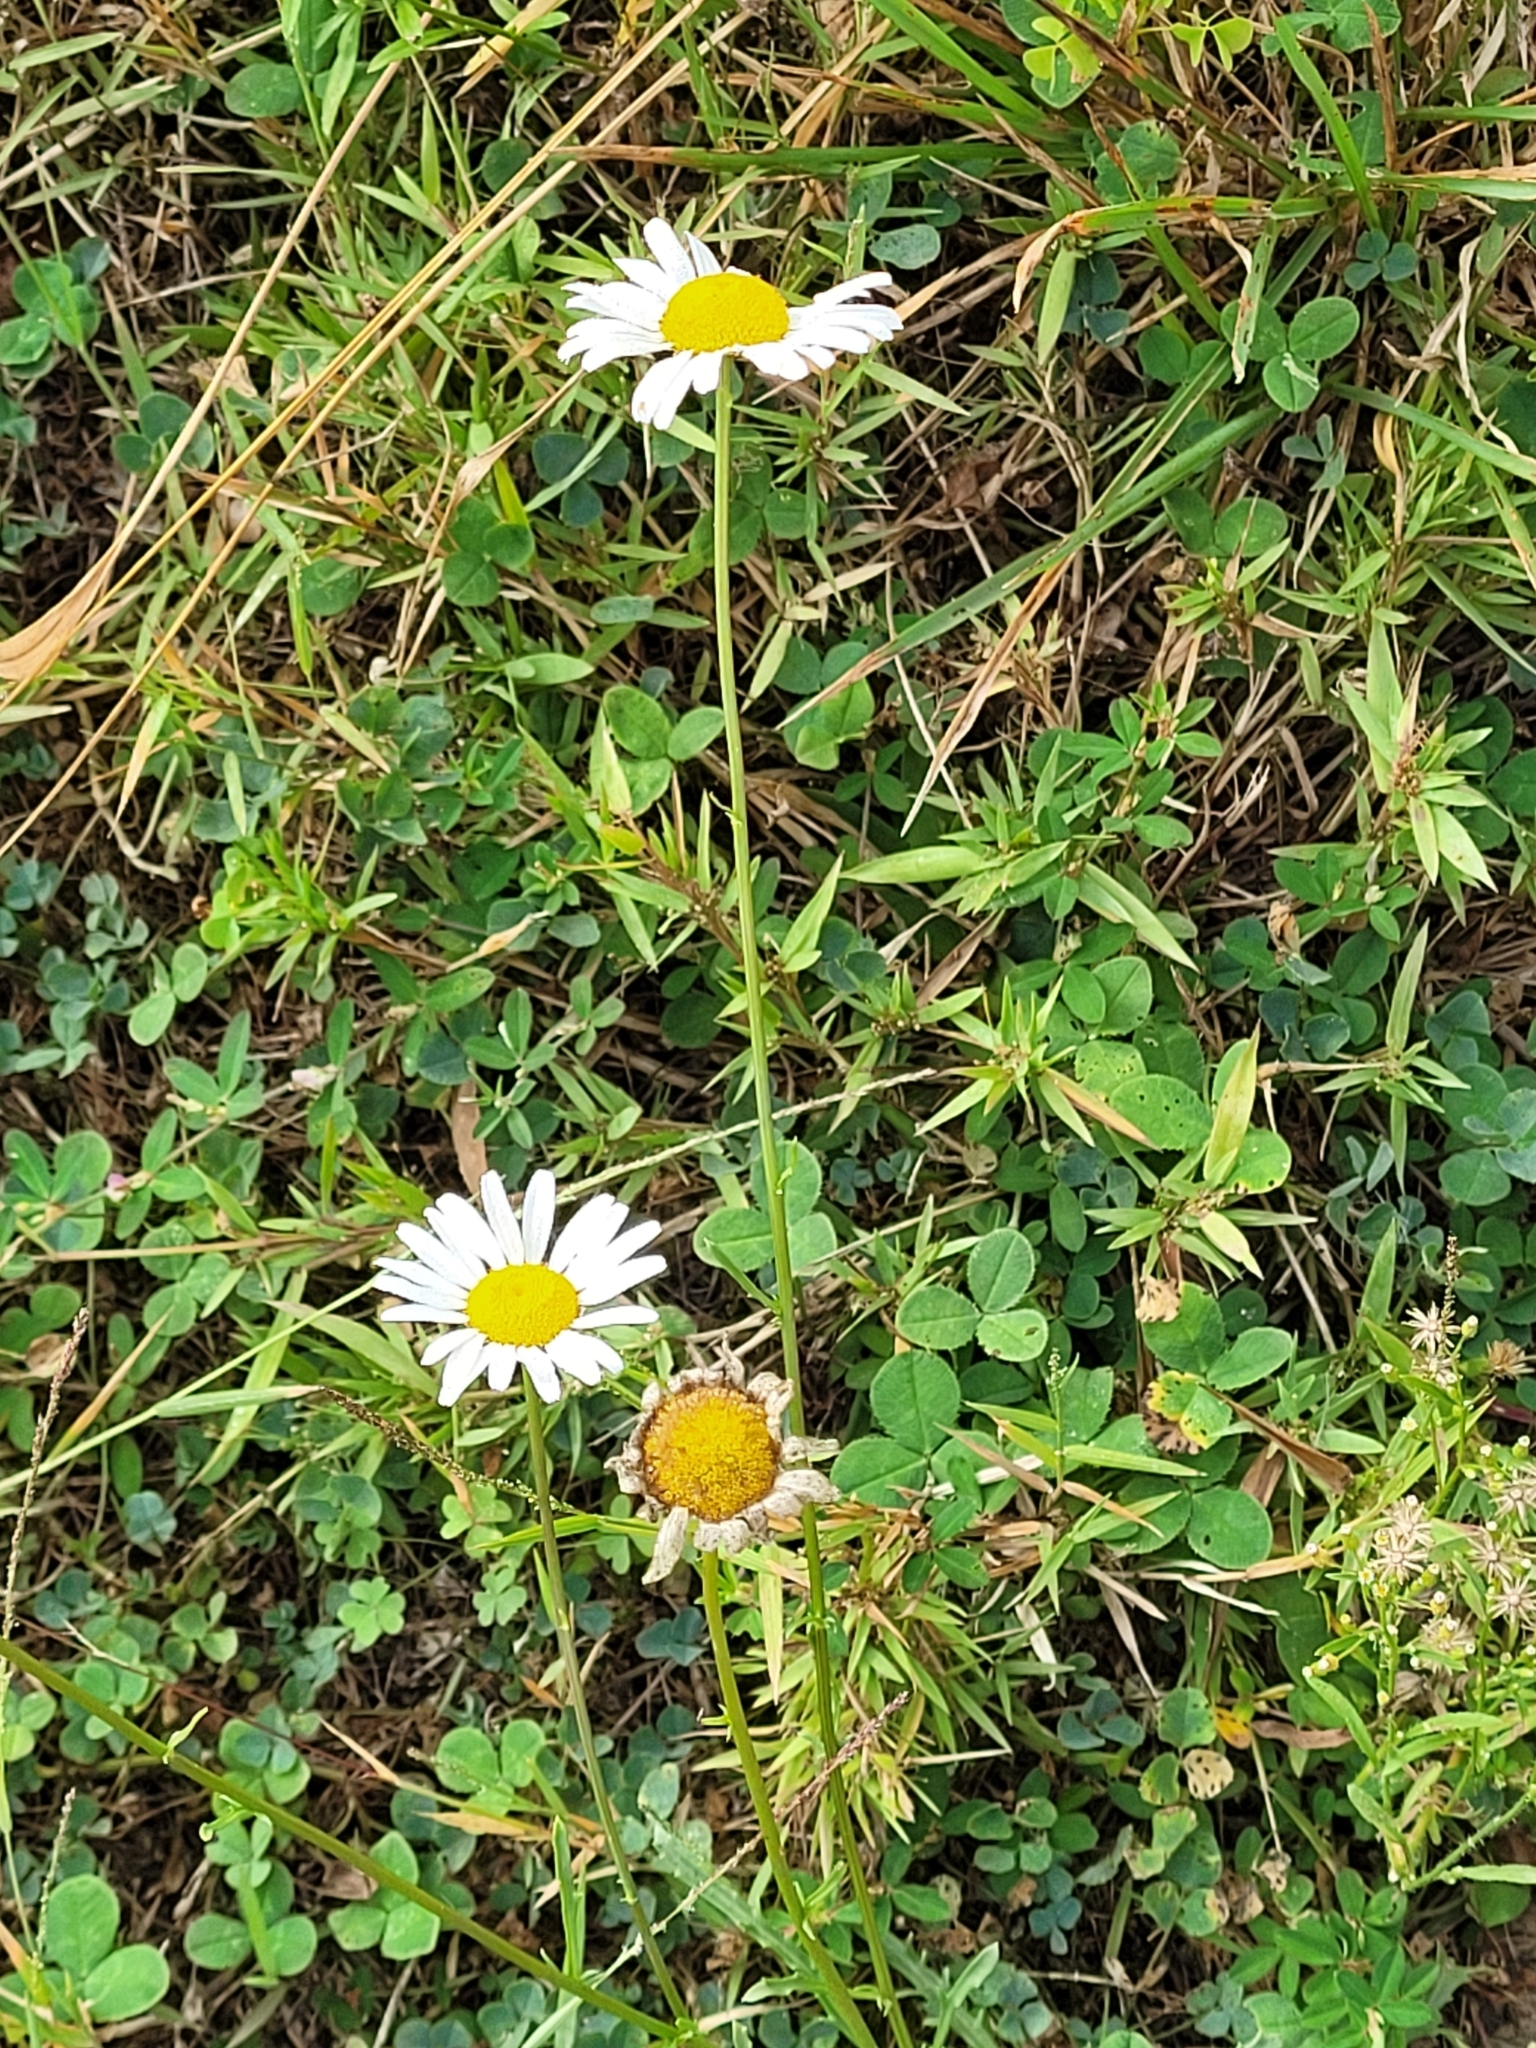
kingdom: Plantae
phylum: Tracheophyta
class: Magnoliopsida
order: Asterales
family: Asteraceae
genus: Leucanthemum
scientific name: Leucanthemum vulgare
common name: Oxeye daisy
